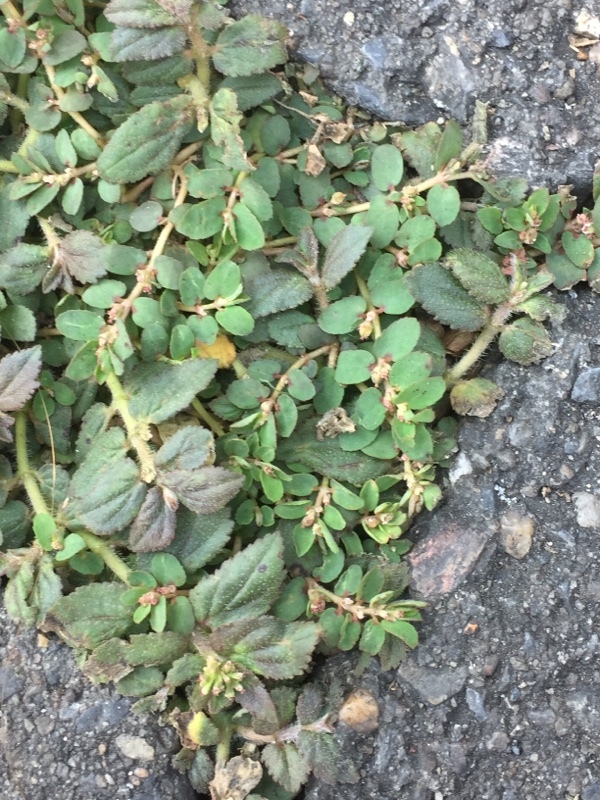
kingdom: Plantae
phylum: Tracheophyta
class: Magnoliopsida
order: Malpighiales
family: Euphorbiaceae
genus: Euphorbia
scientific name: Euphorbia thymifolia
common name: Gulf sandmat
